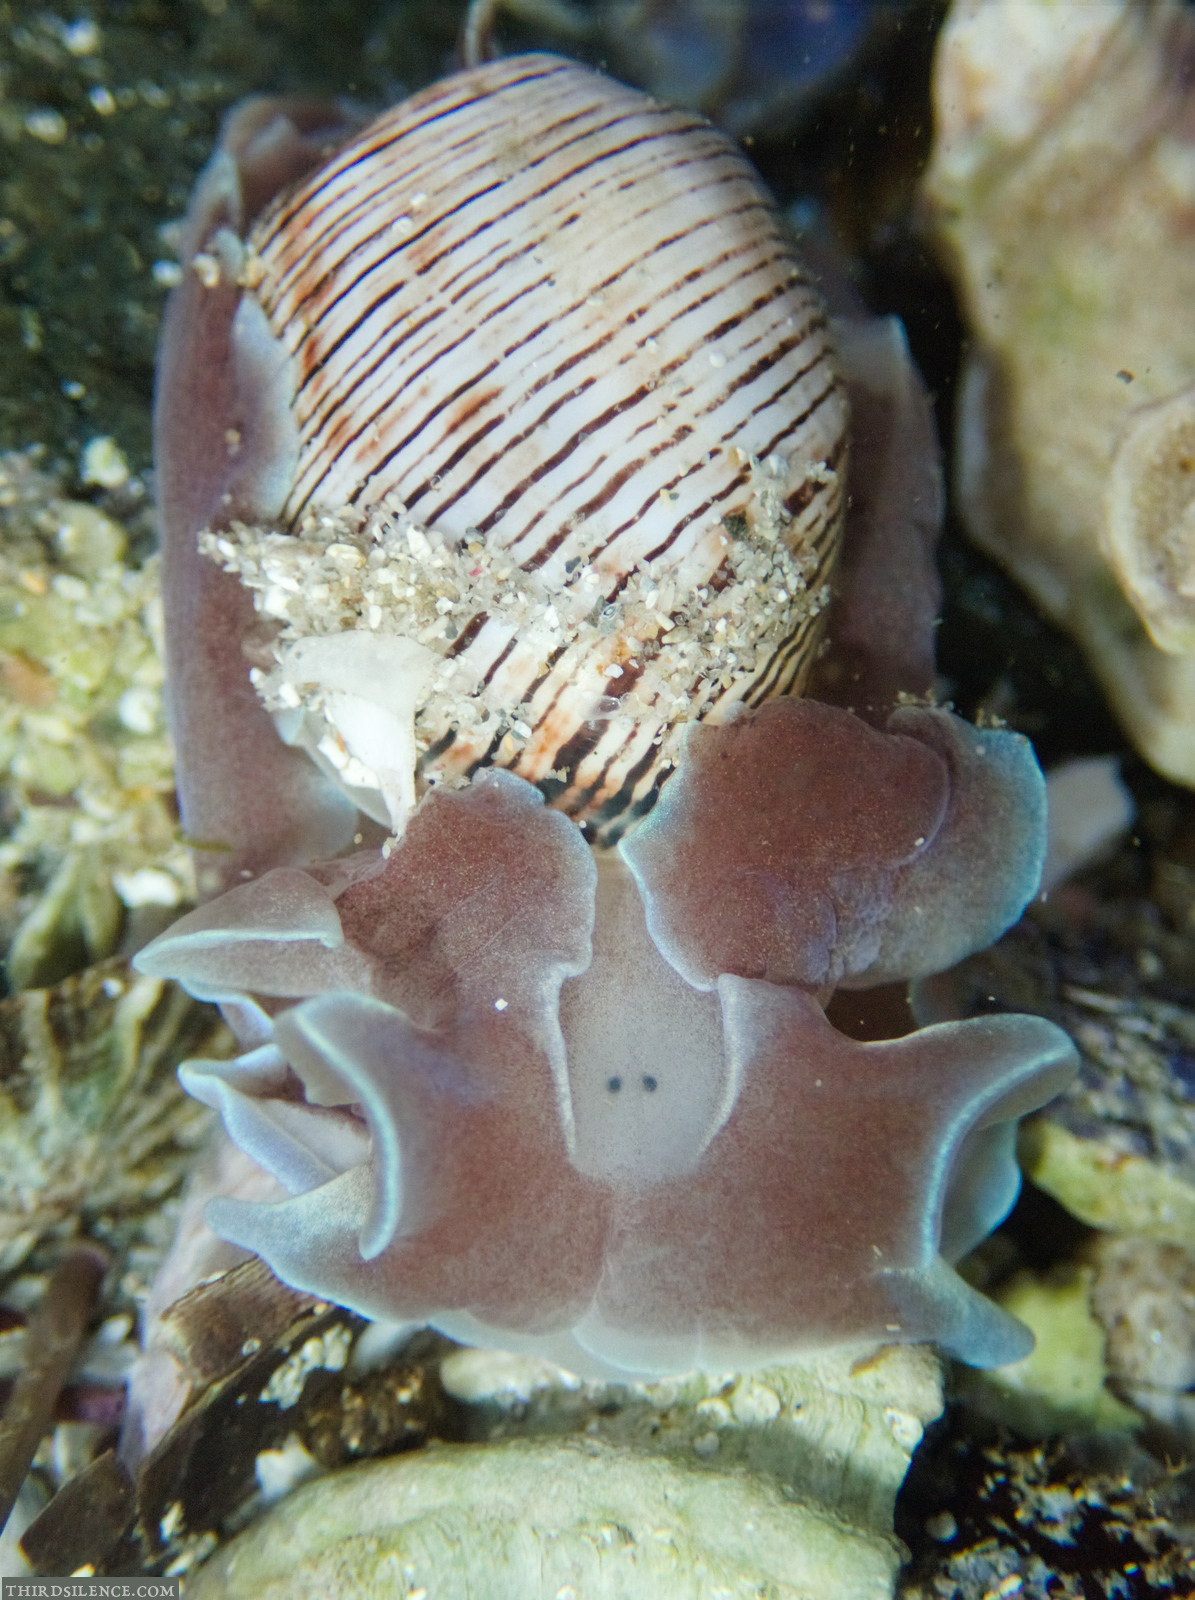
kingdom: Animalia
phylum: Mollusca
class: Gastropoda
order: Cephalaspidea
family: Aplustridae
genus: Hydatina
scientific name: Hydatina physis
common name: Brown-line paperbubble
